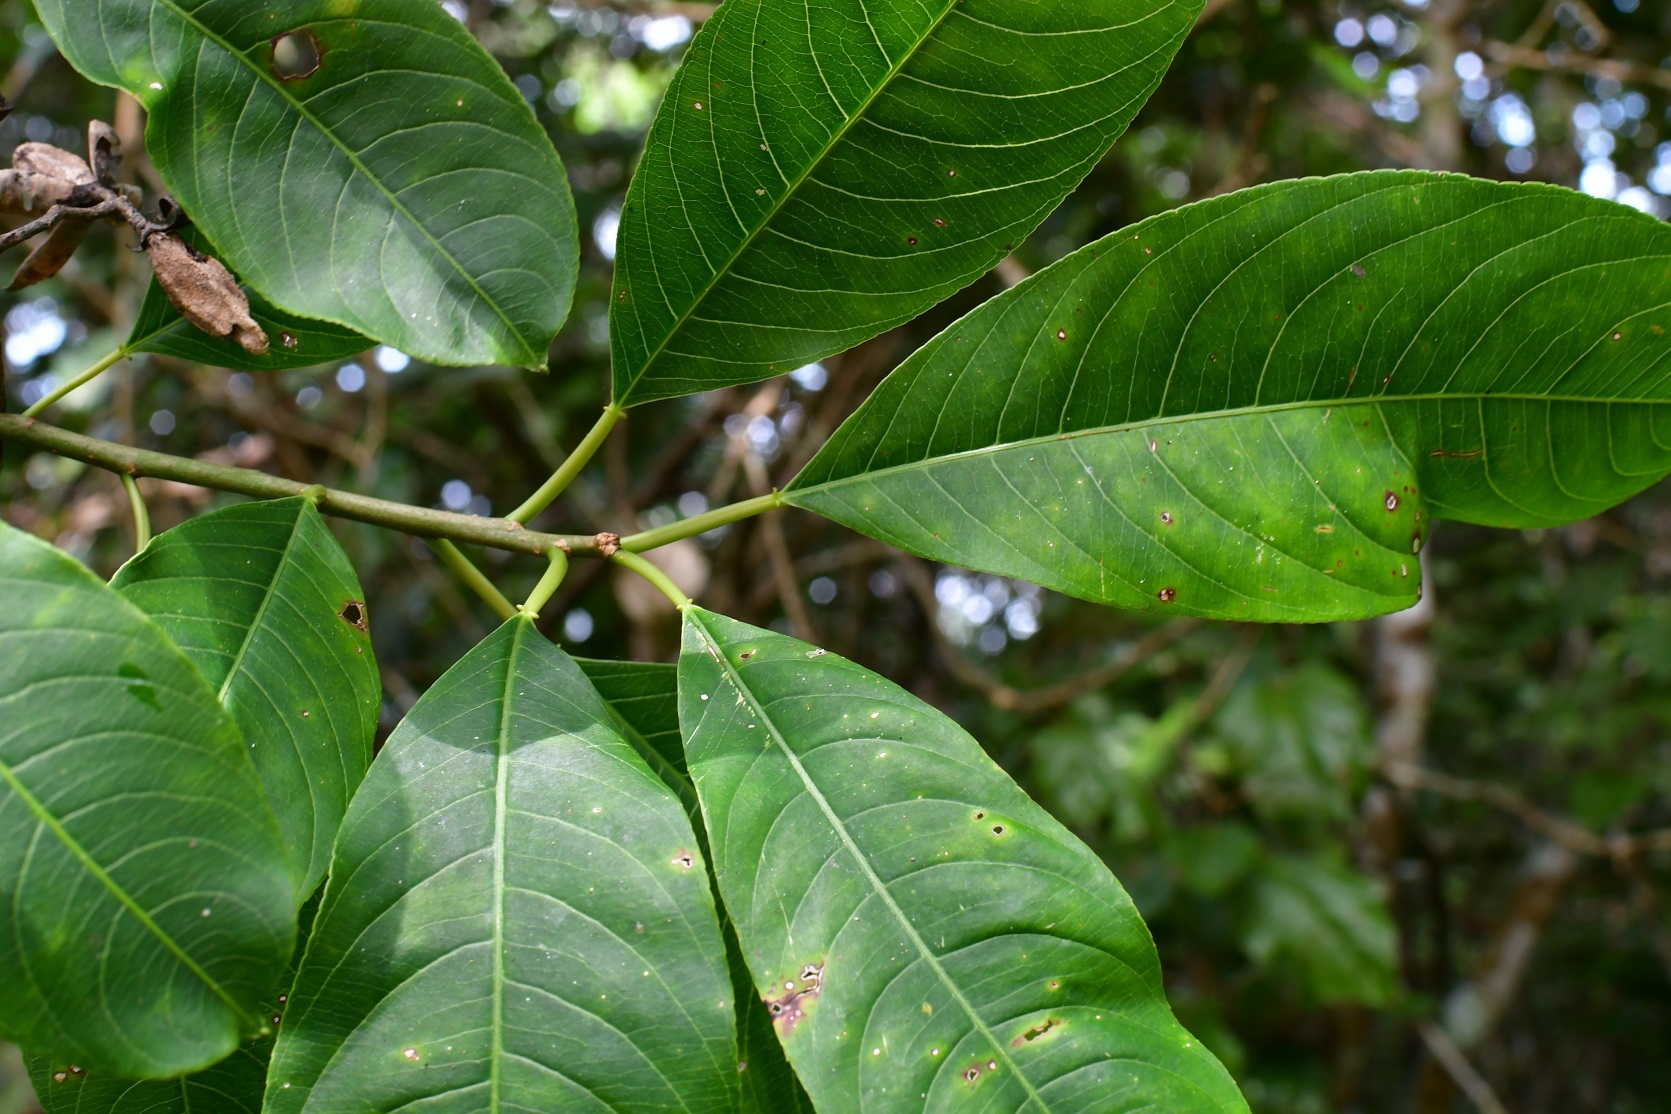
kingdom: Plantae
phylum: Tracheophyta
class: Magnoliopsida
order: Malpighiales
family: Euphorbiaceae
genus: Sapium
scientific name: Sapium macrocarpum
